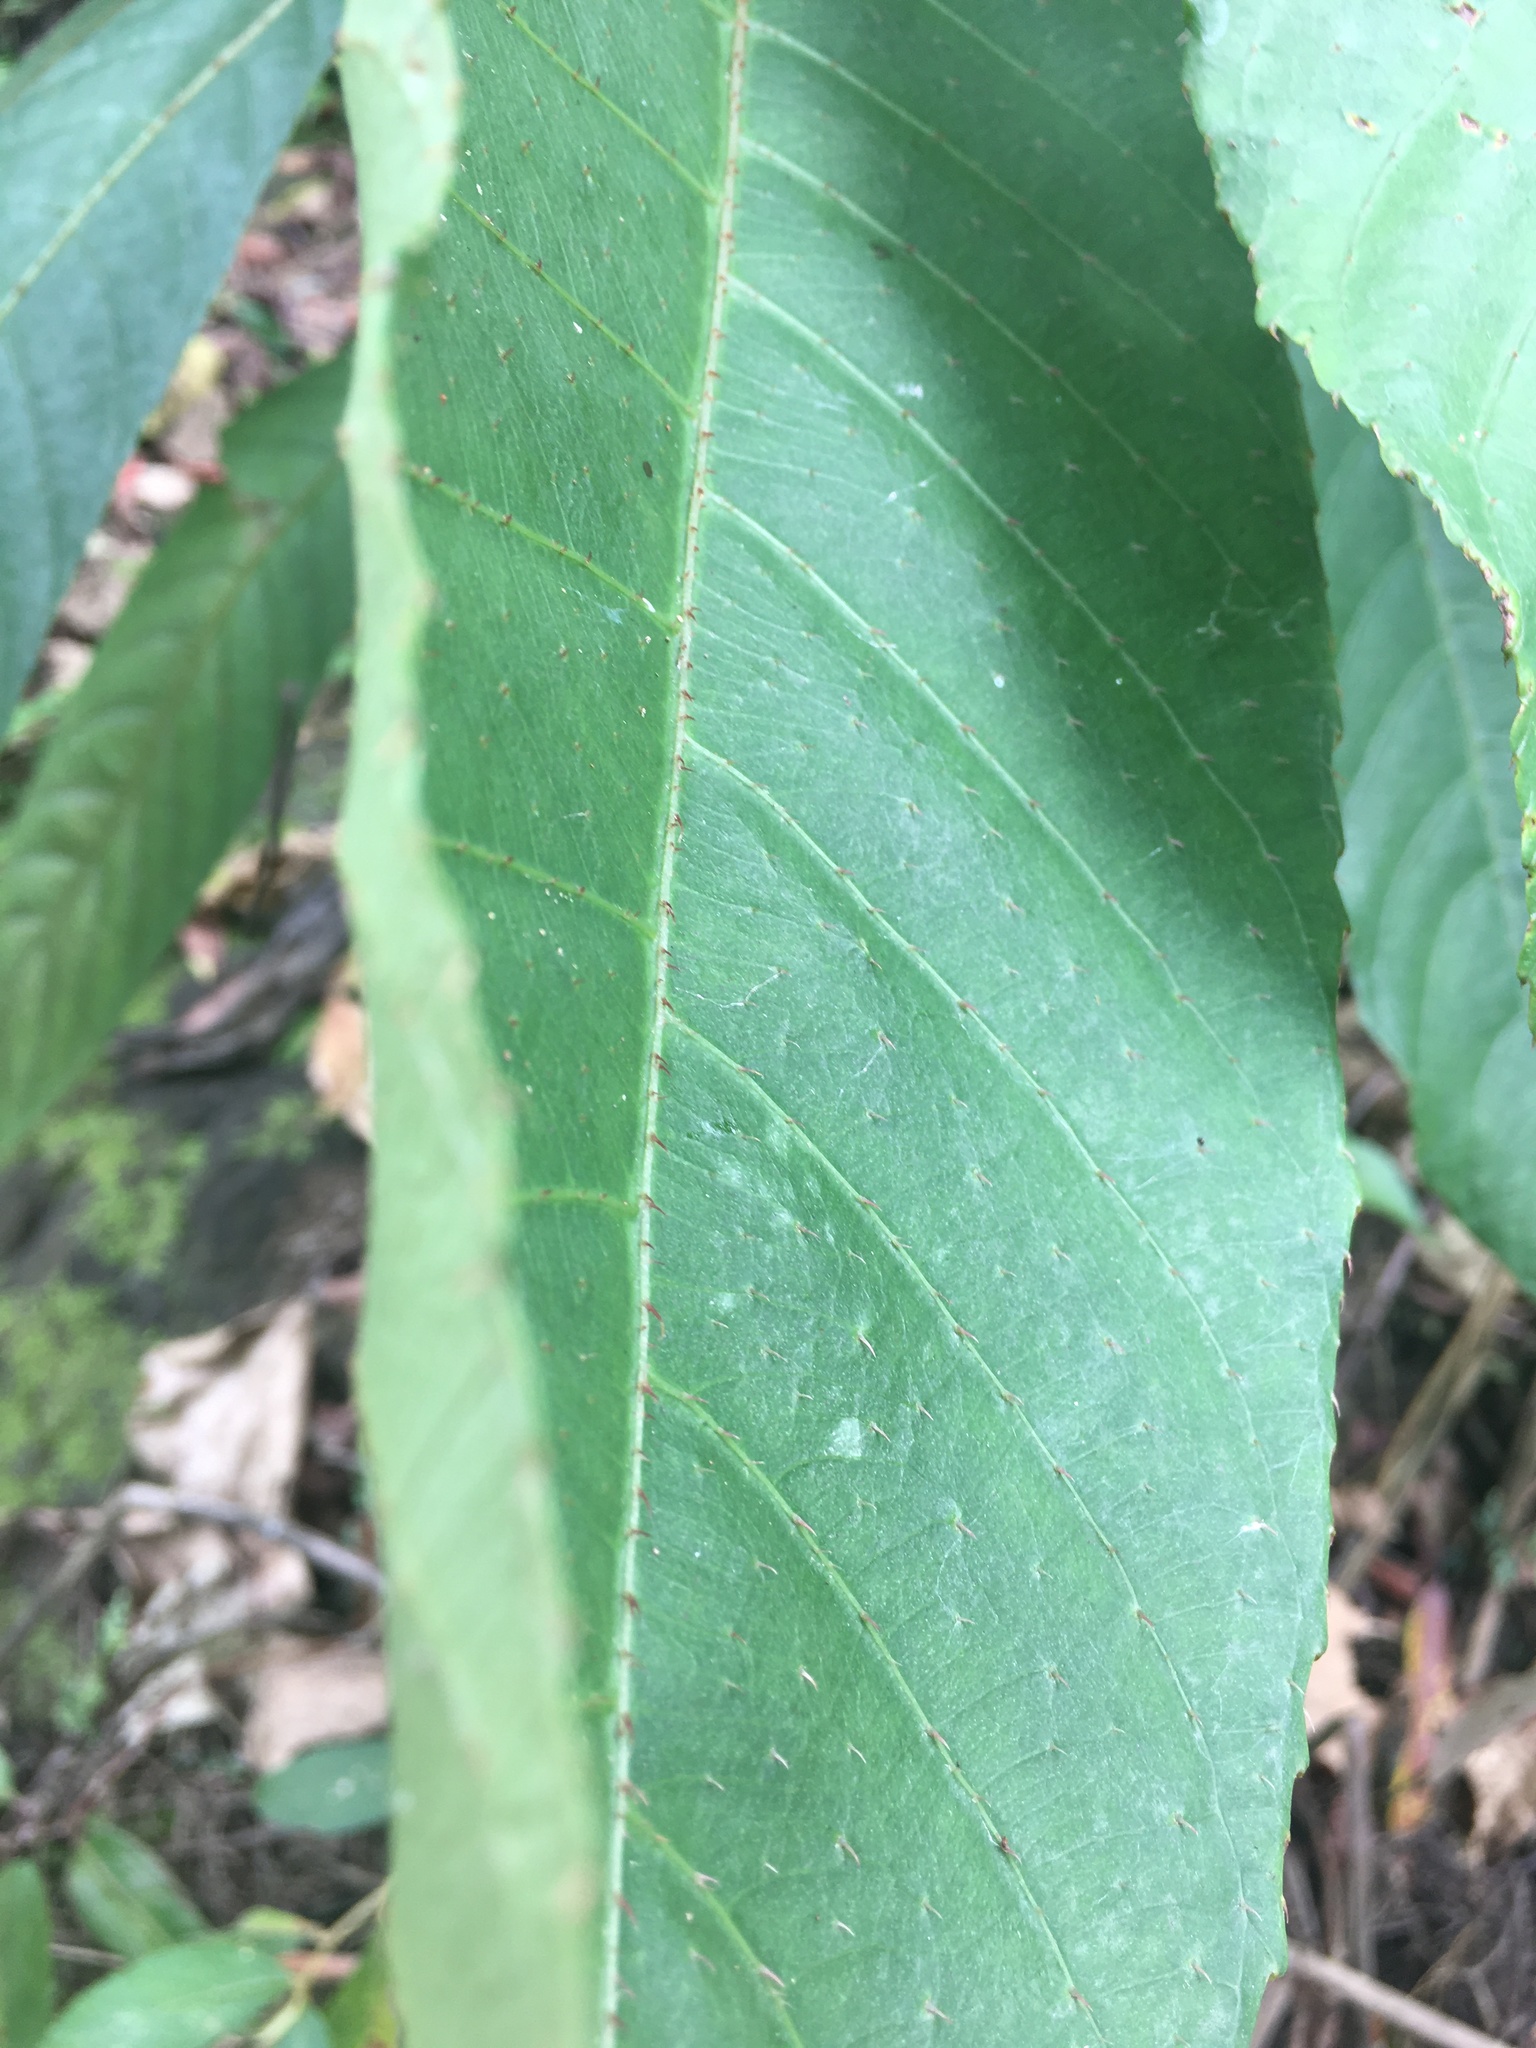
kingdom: Plantae
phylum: Tracheophyta
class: Magnoliopsida
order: Ericales
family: Actinidiaceae
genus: Saurauia
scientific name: Saurauia tristyla
